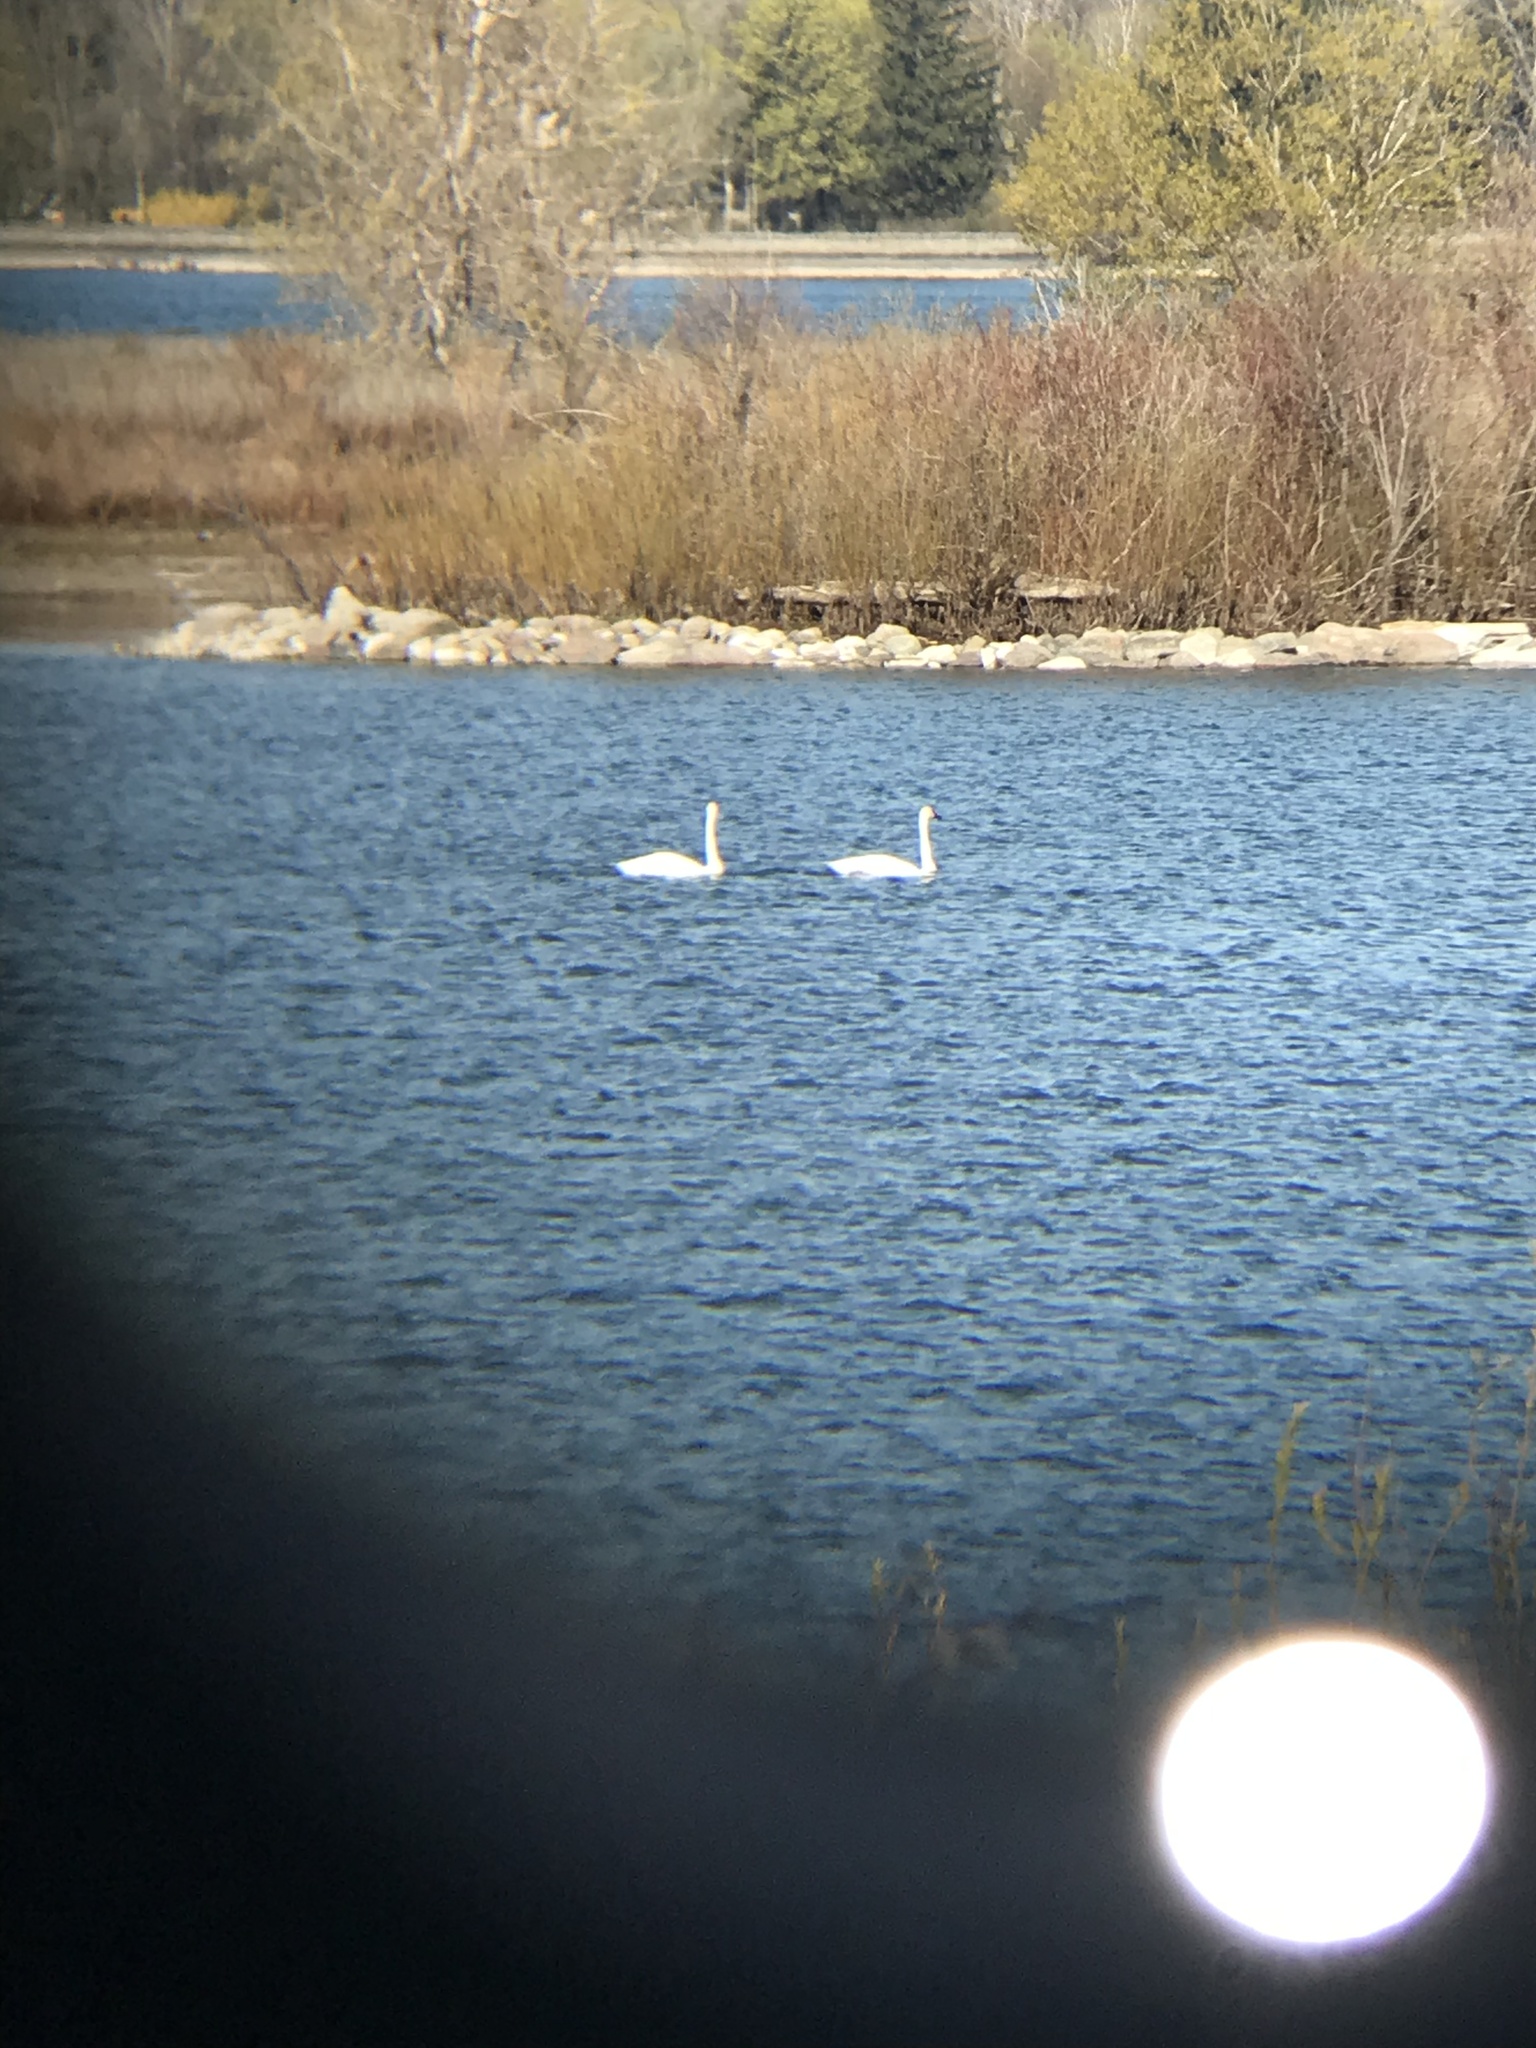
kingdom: Animalia
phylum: Chordata
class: Aves
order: Anseriformes
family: Anatidae
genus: Cygnus
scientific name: Cygnus buccinator
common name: Trumpeter swan
